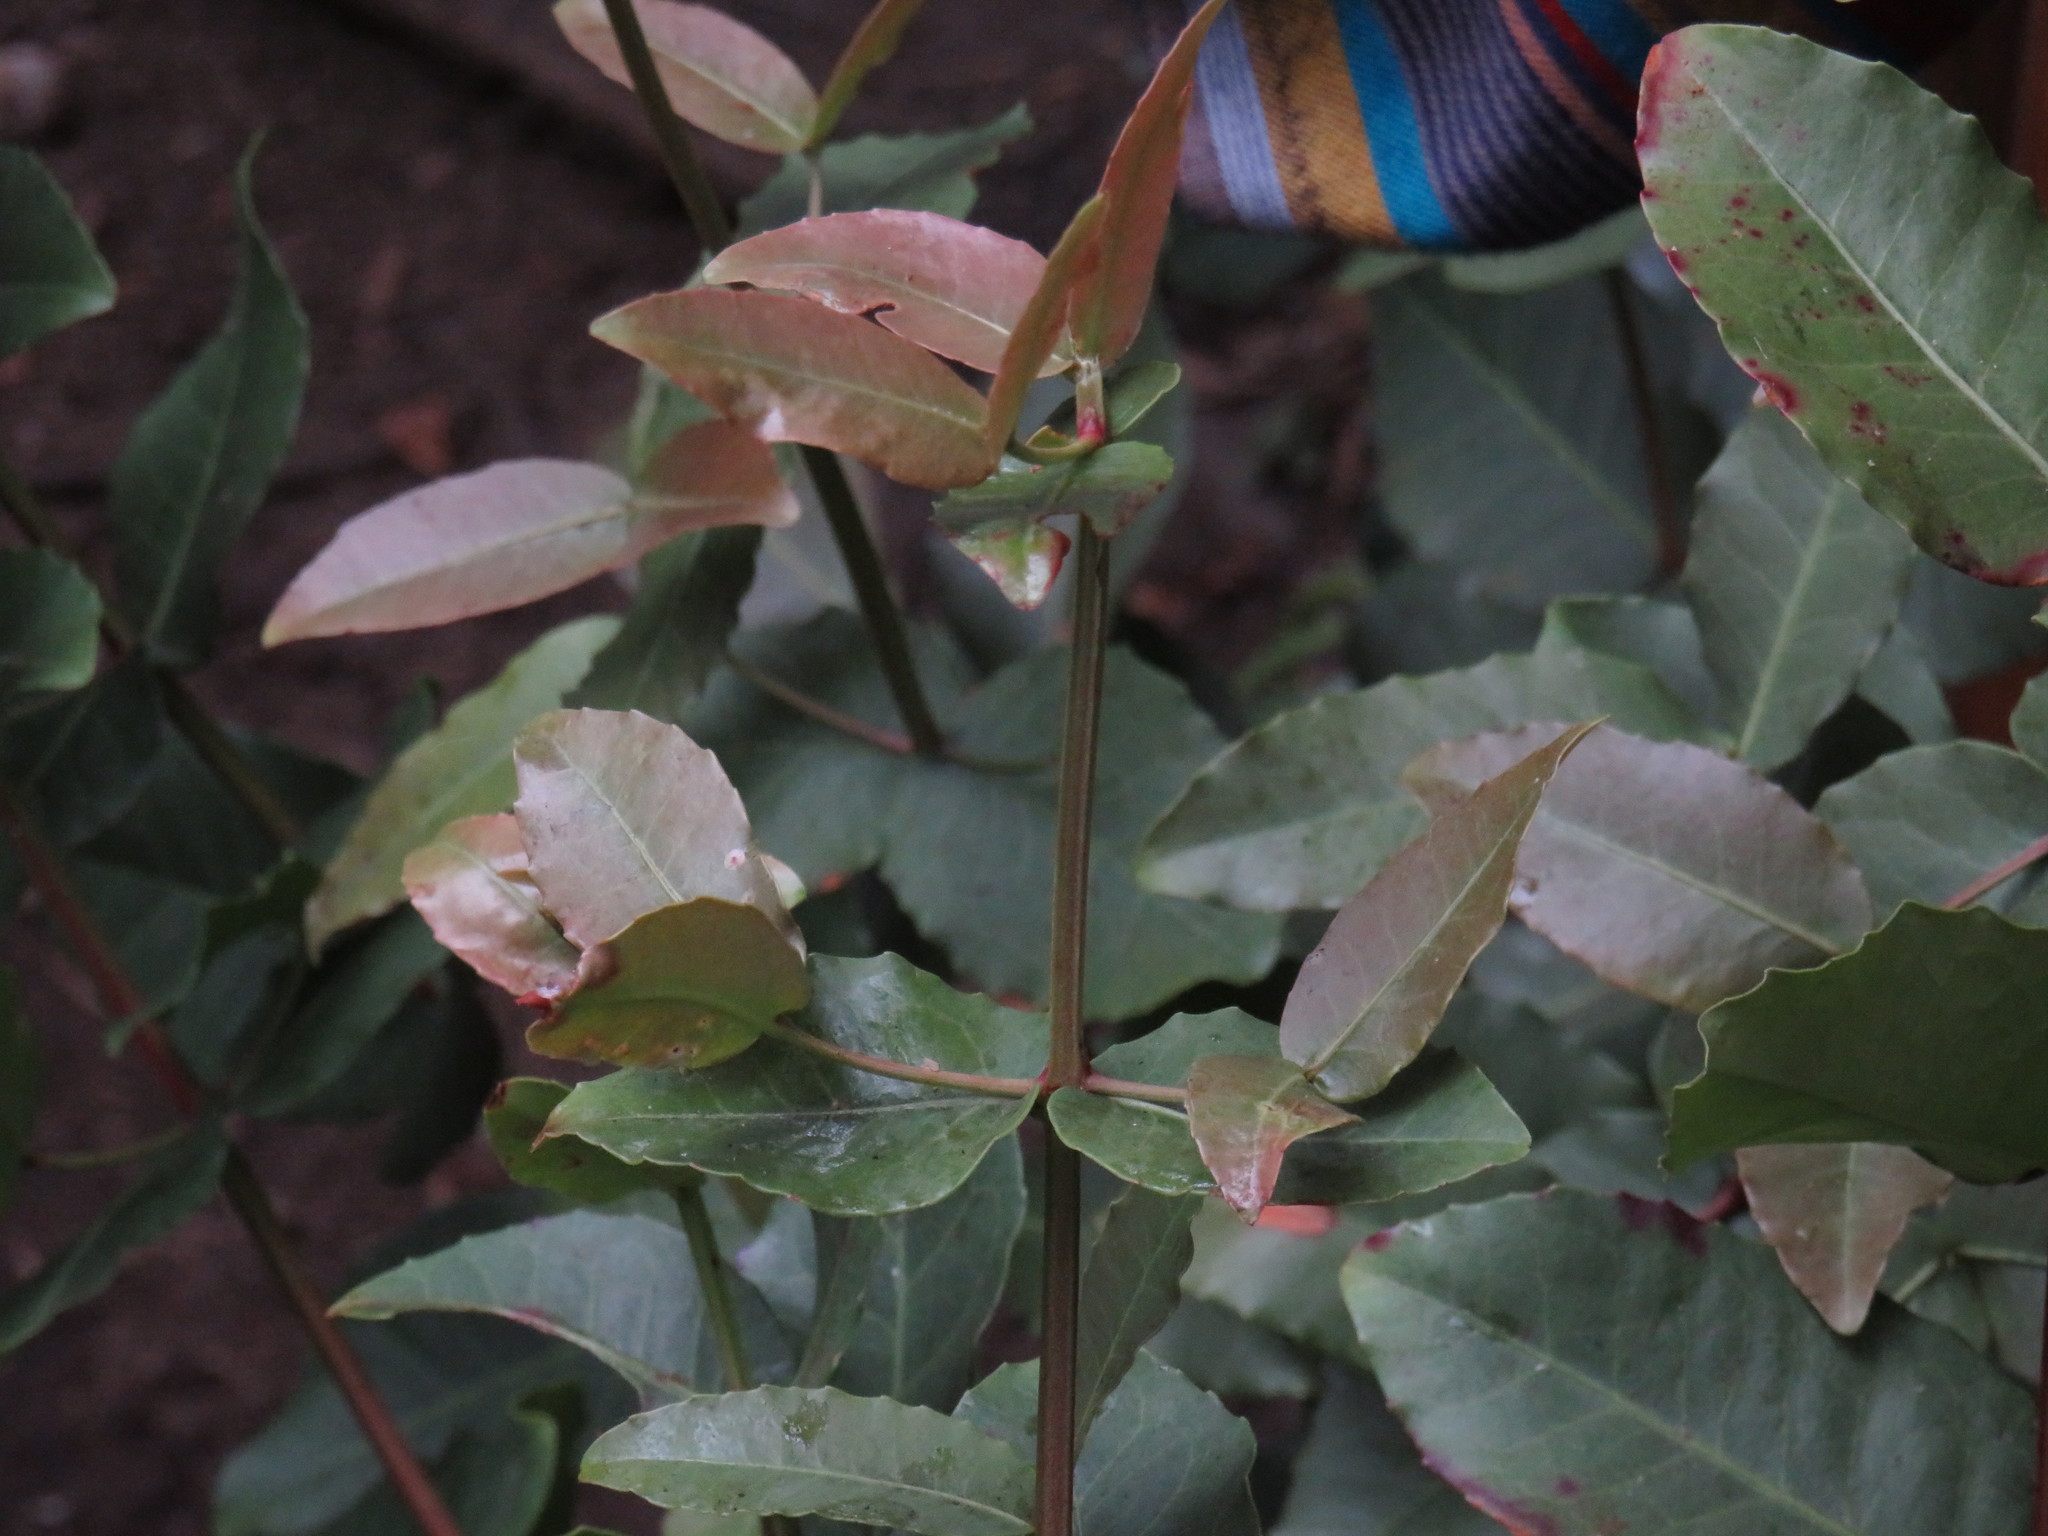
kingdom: Plantae
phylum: Tracheophyta
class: Magnoliopsida
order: Celastrales
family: Celastraceae
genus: Lauridia
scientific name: Lauridia tetragona
